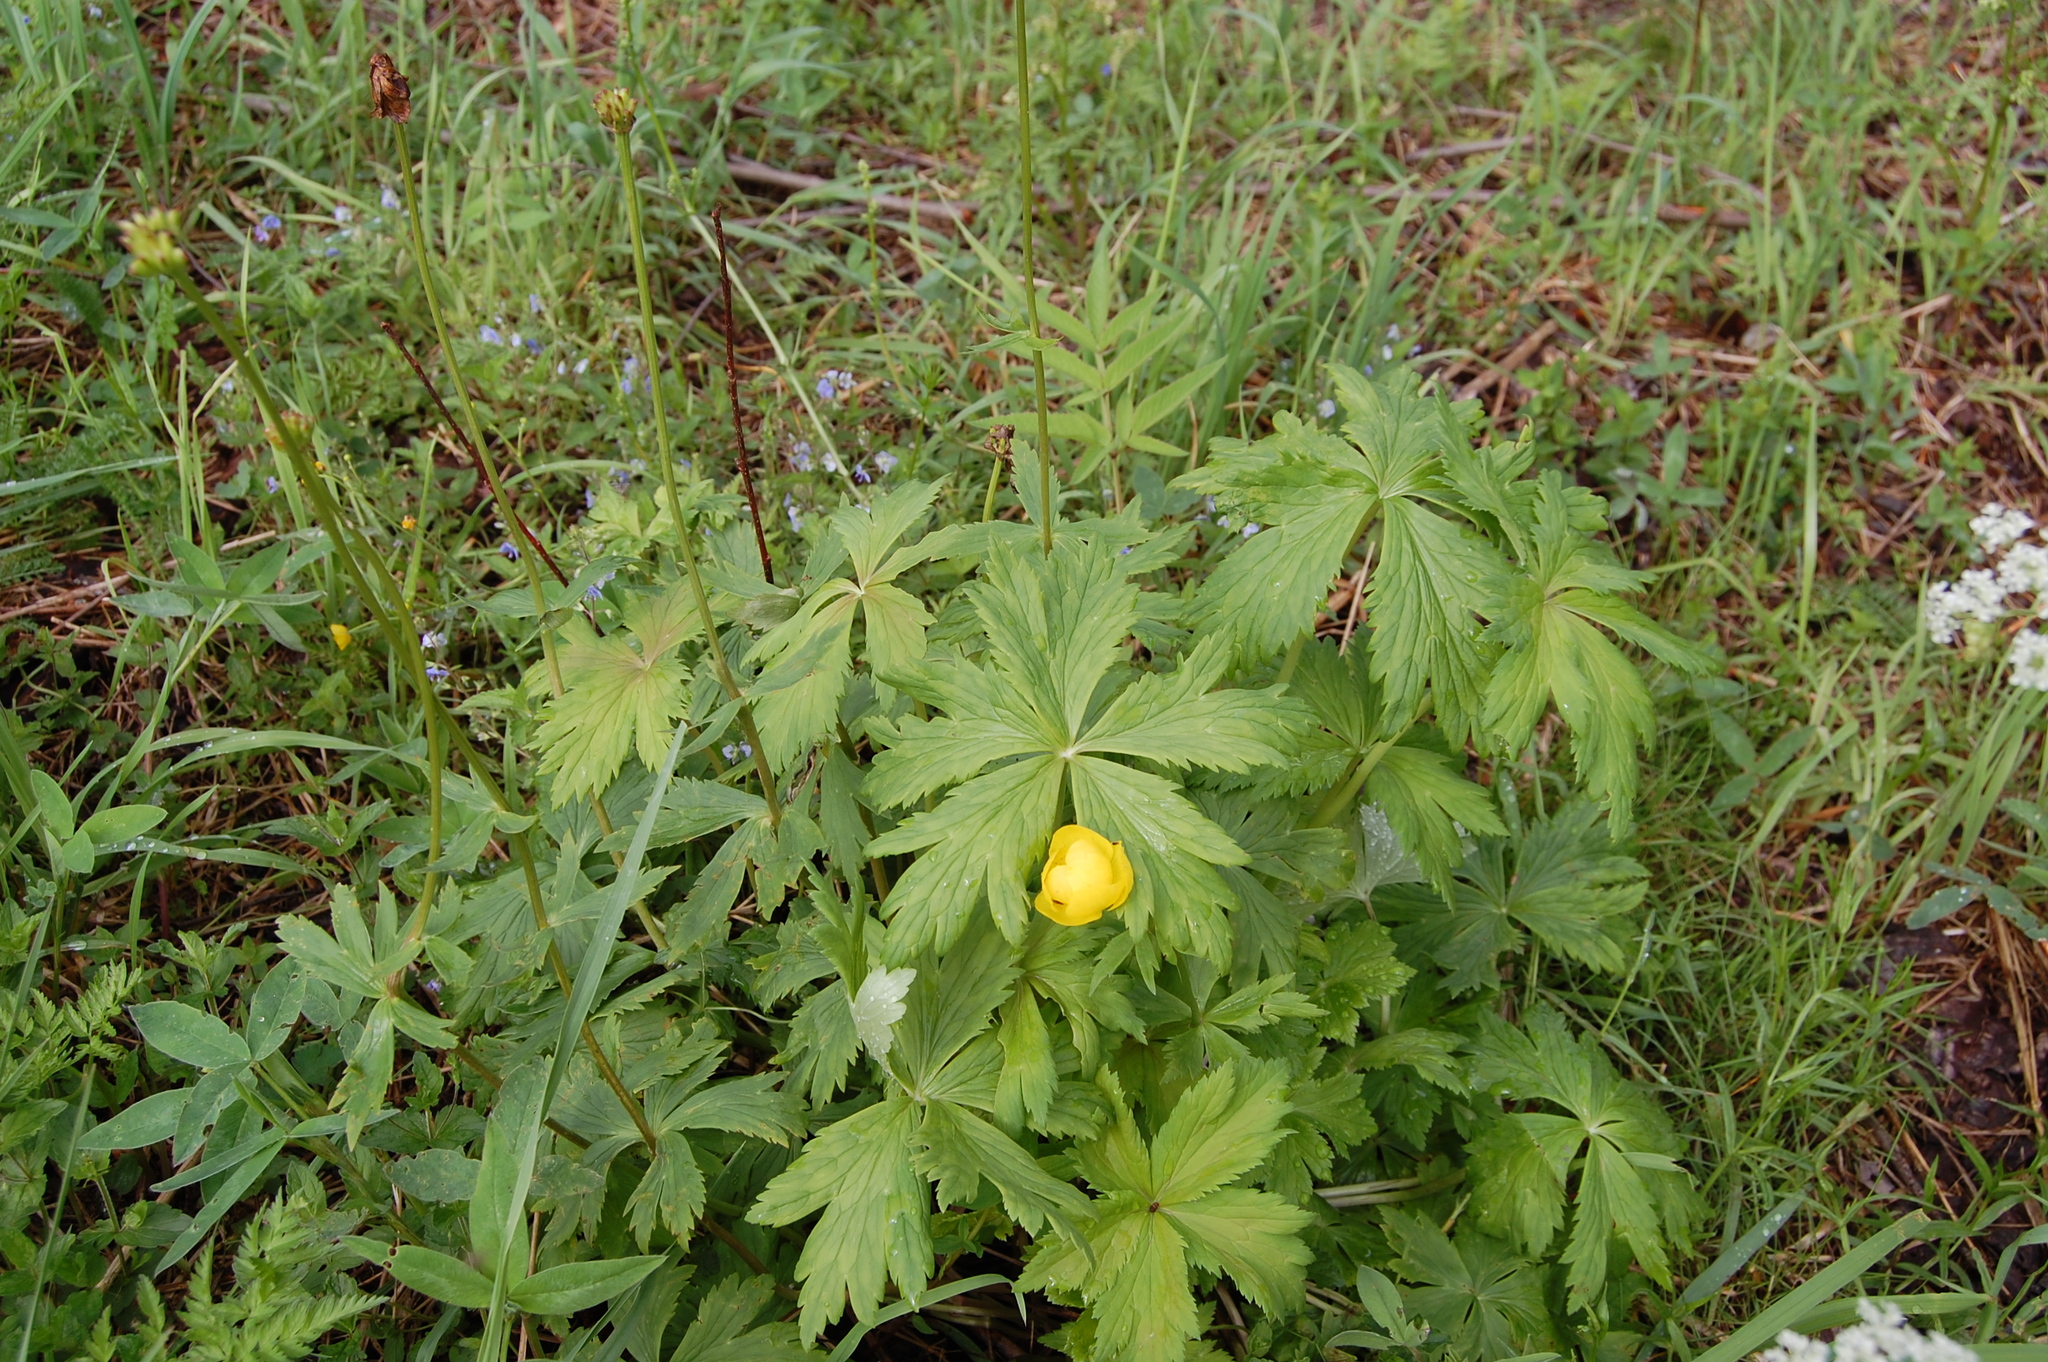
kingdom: Plantae
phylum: Tracheophyta
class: Magnoliopsida
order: Ranunculales
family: Ranunculaceae
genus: Trollius
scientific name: Trollius europaeus
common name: European globeflower
